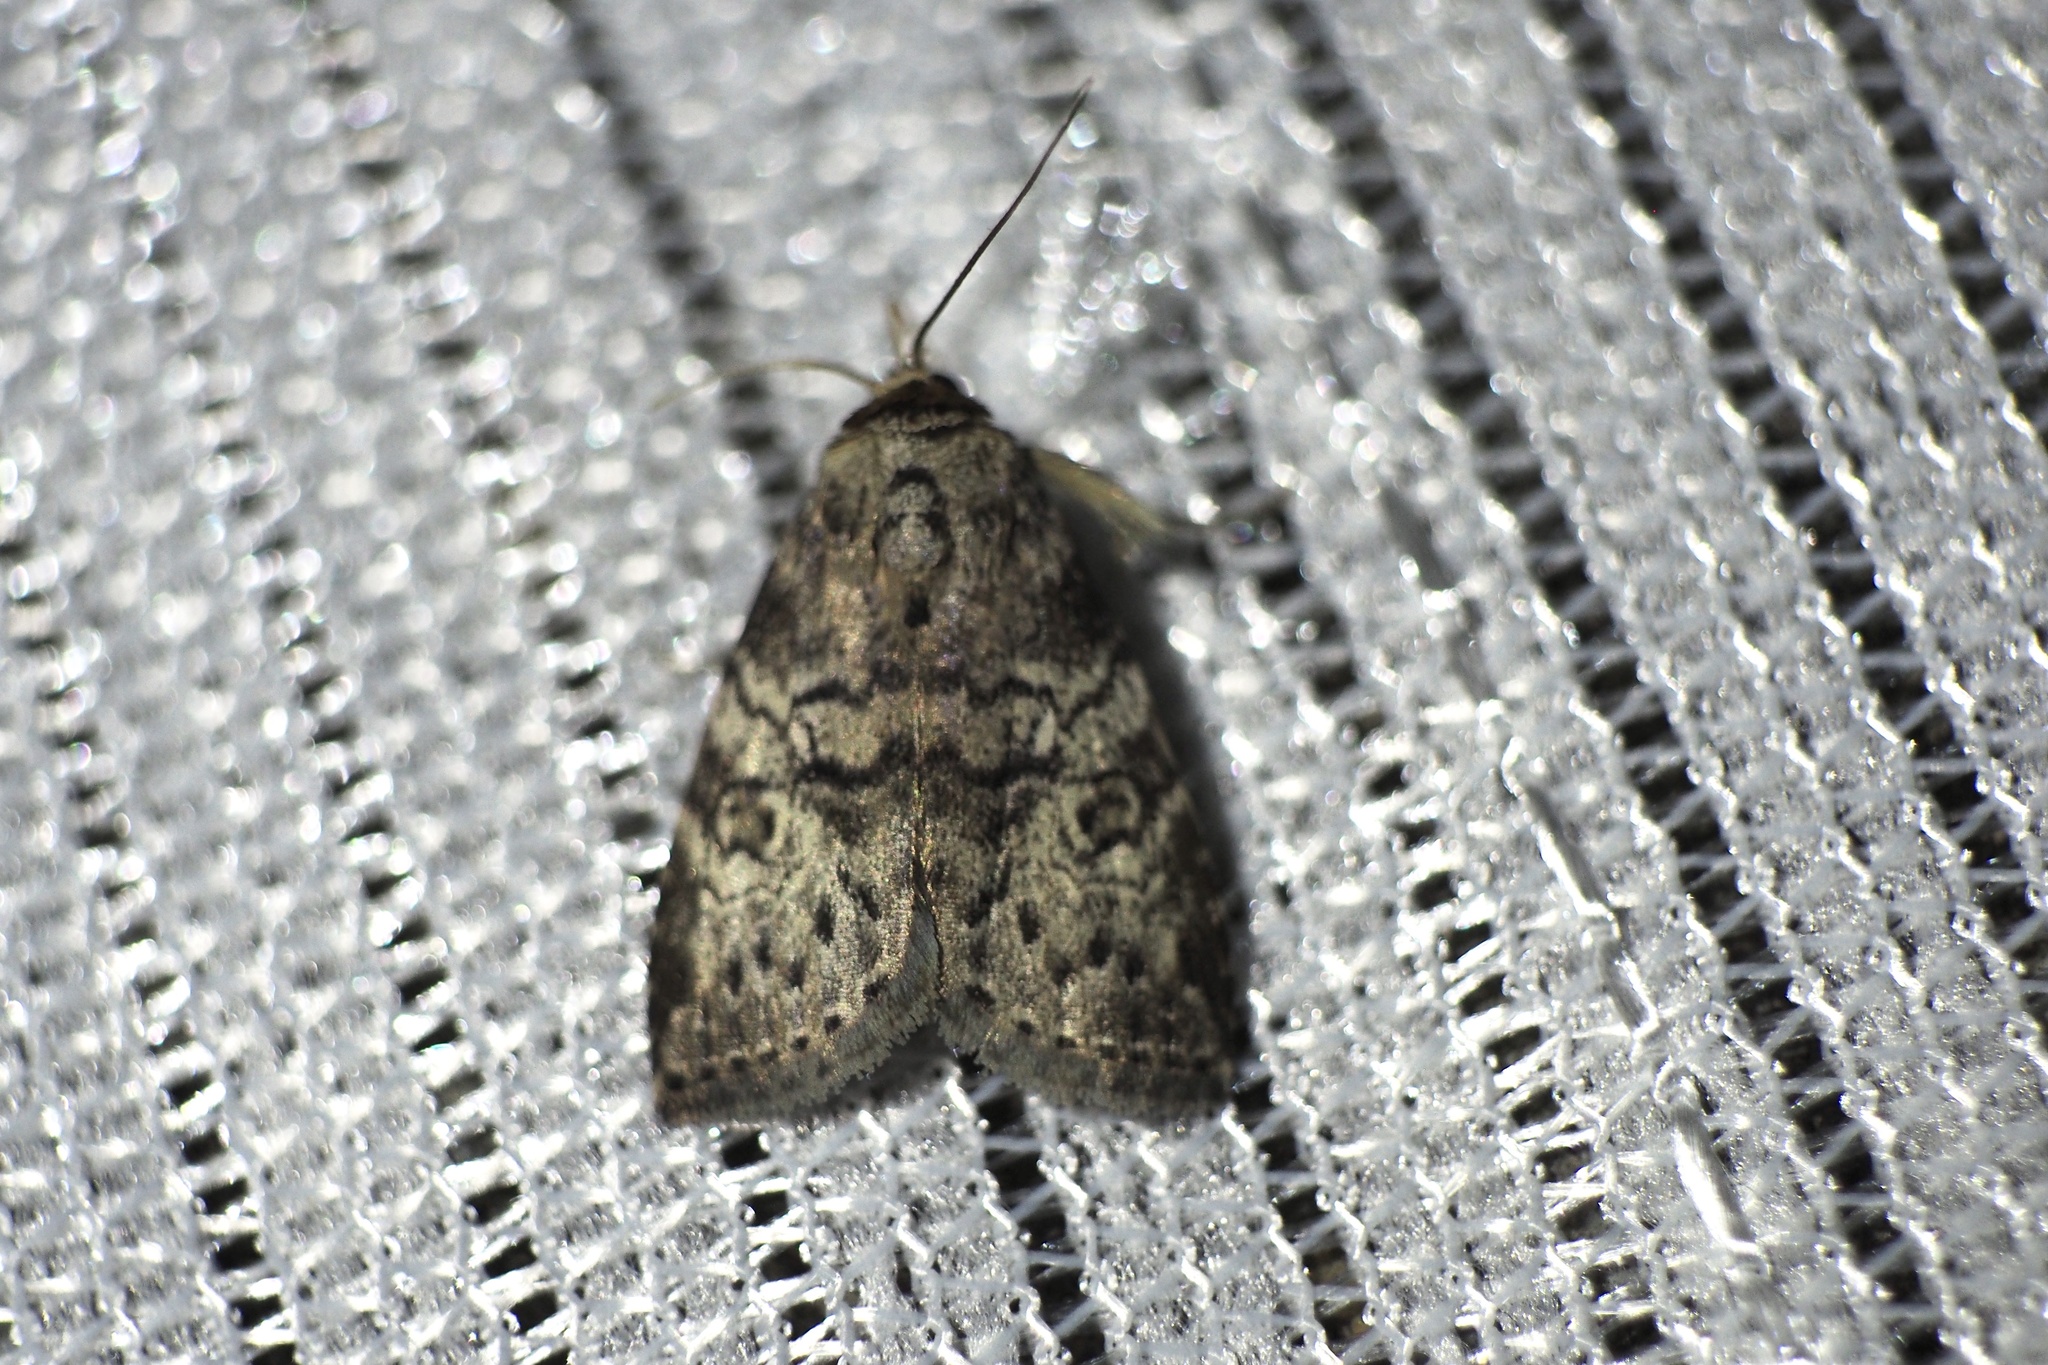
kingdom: Animalia
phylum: Arthropoda
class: Insecta
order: Lepidoptera
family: Erebidae
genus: Chorsia
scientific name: Chorsia mollicula
